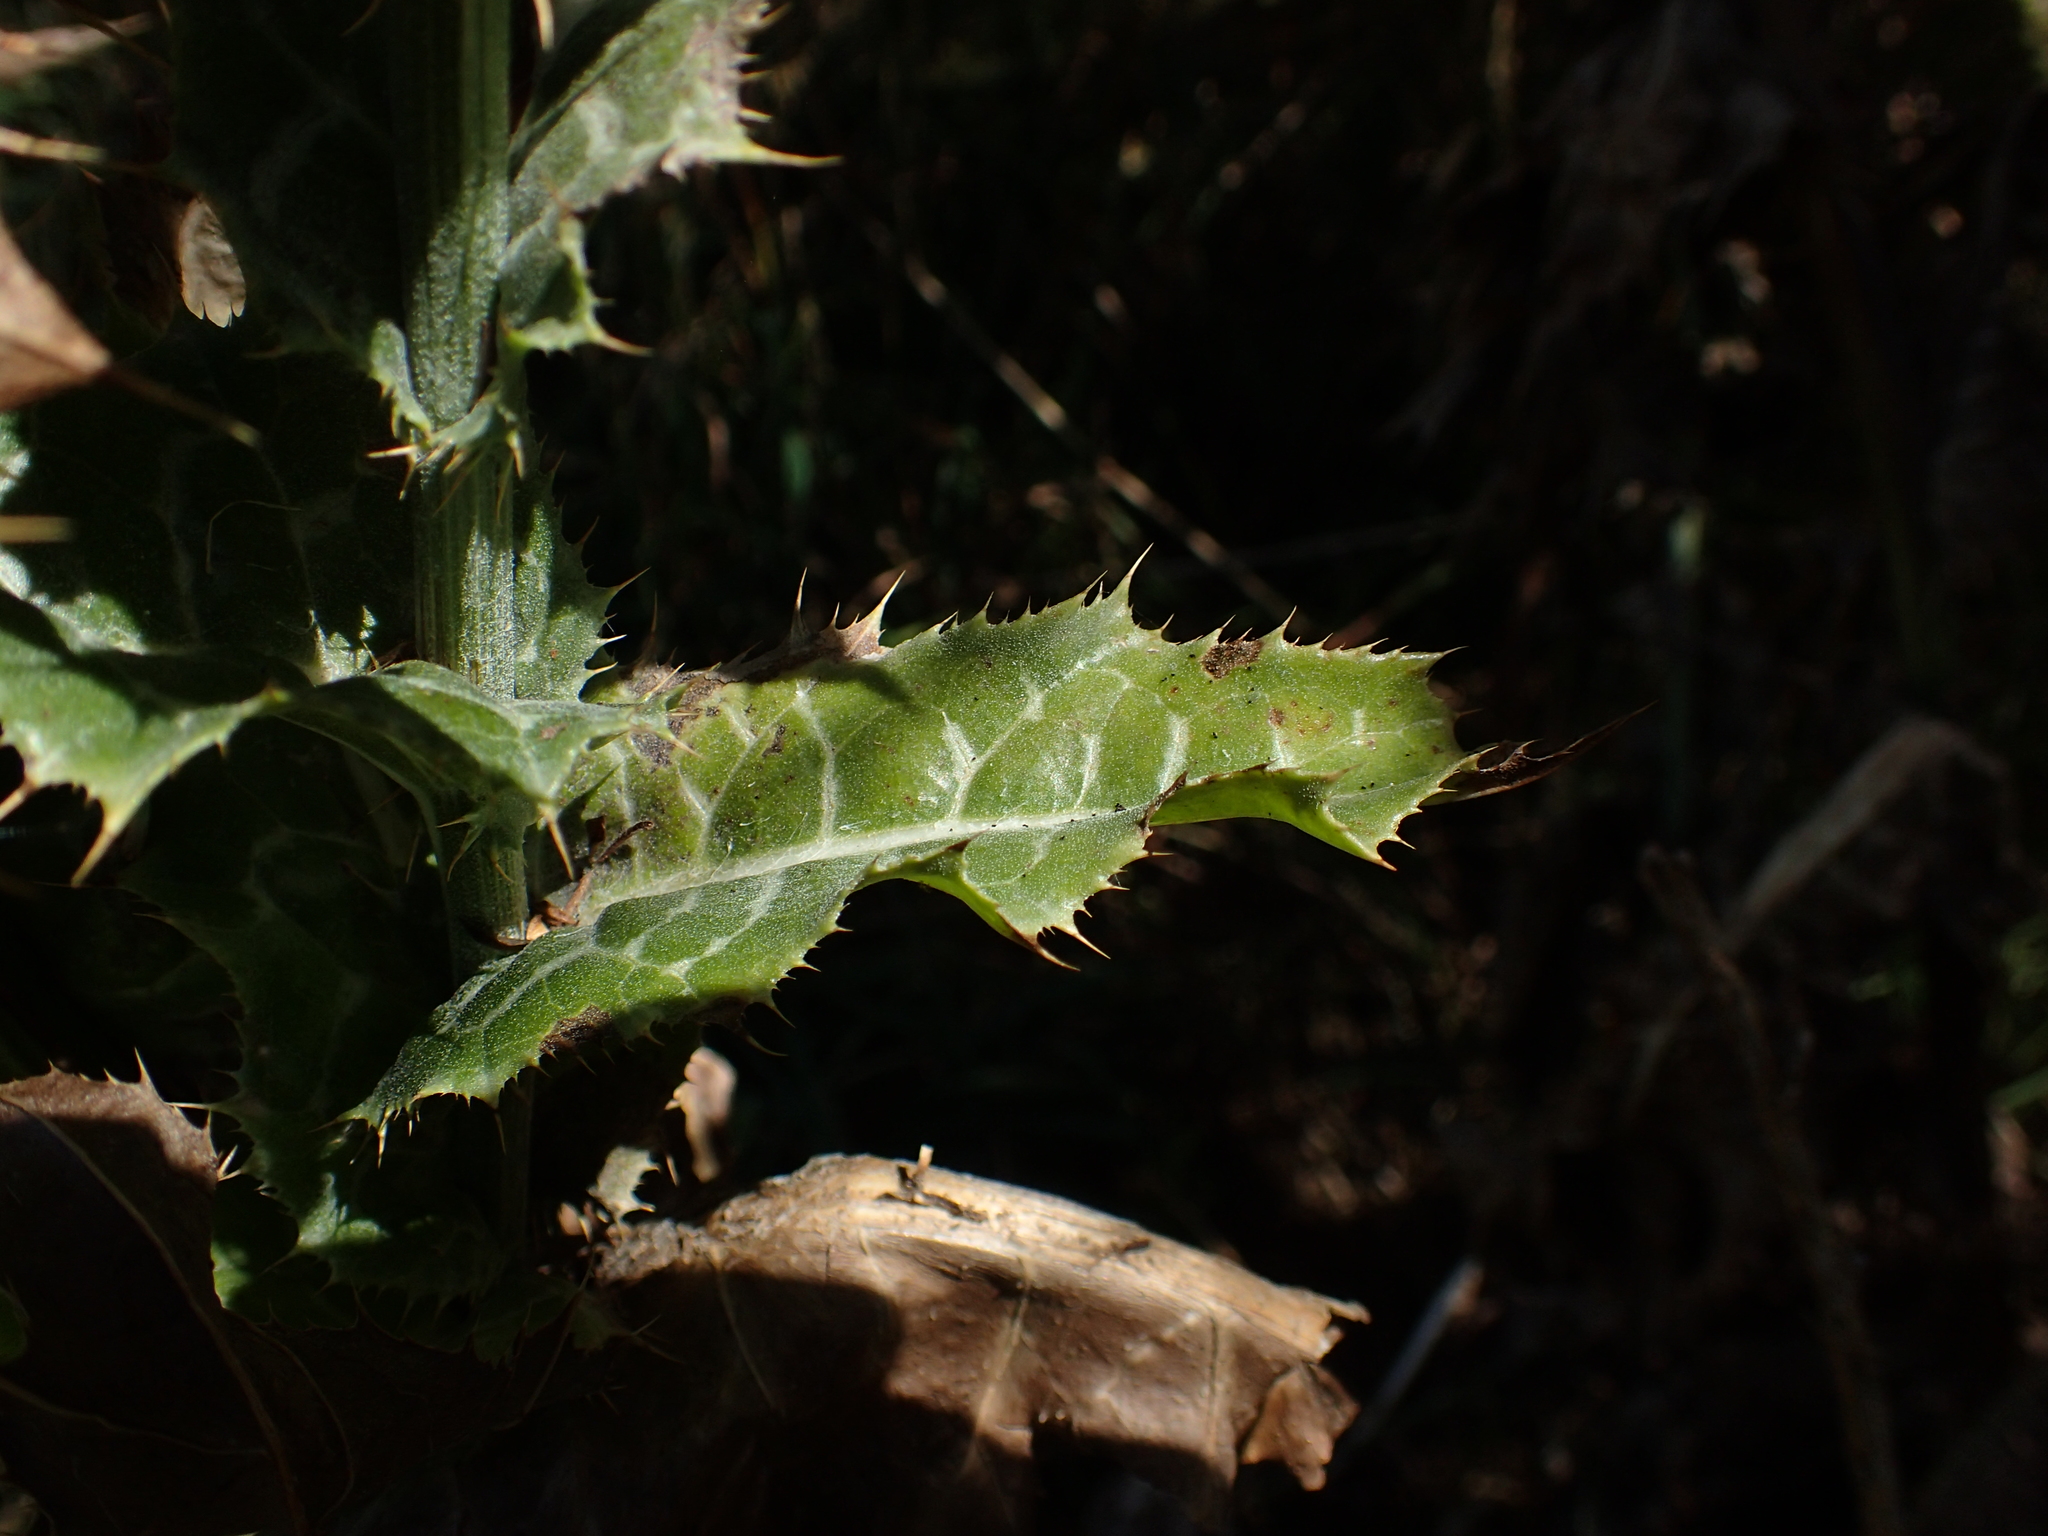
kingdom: Plantae
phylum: Tracheophyta
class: Magnoliopsida
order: Asterales
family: Asteraceae
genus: Silybum
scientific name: Silybum marianum
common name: Milk thistle
